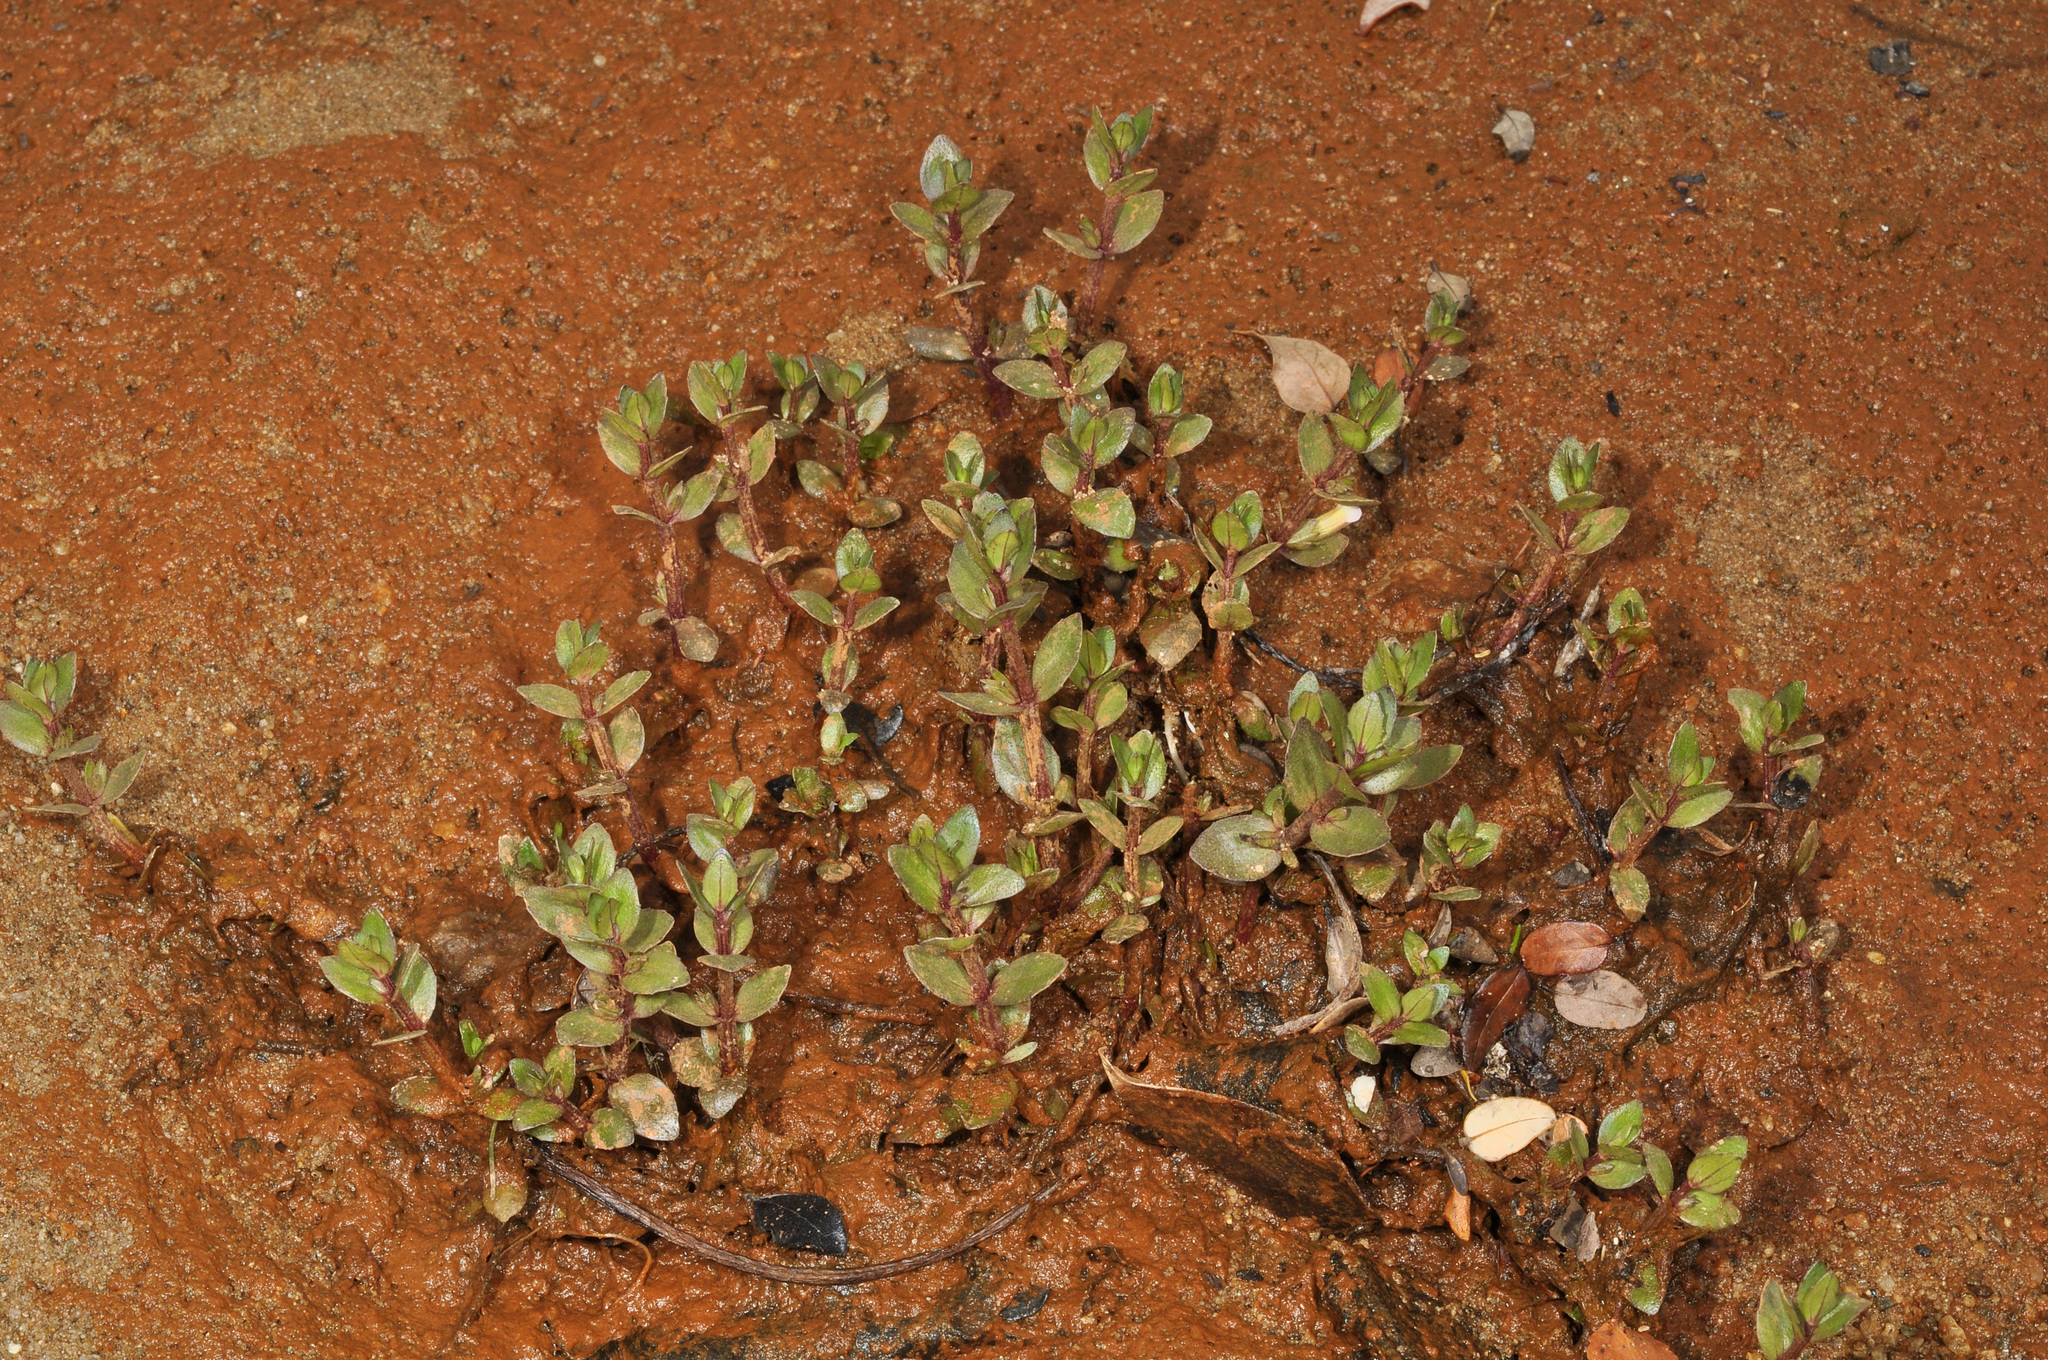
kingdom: Plantae
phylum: Tracheophyta
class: Magnoliopsida
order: Lamiales
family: Plantaginaceae
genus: Gratiola
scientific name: Gratiola sexdentata
